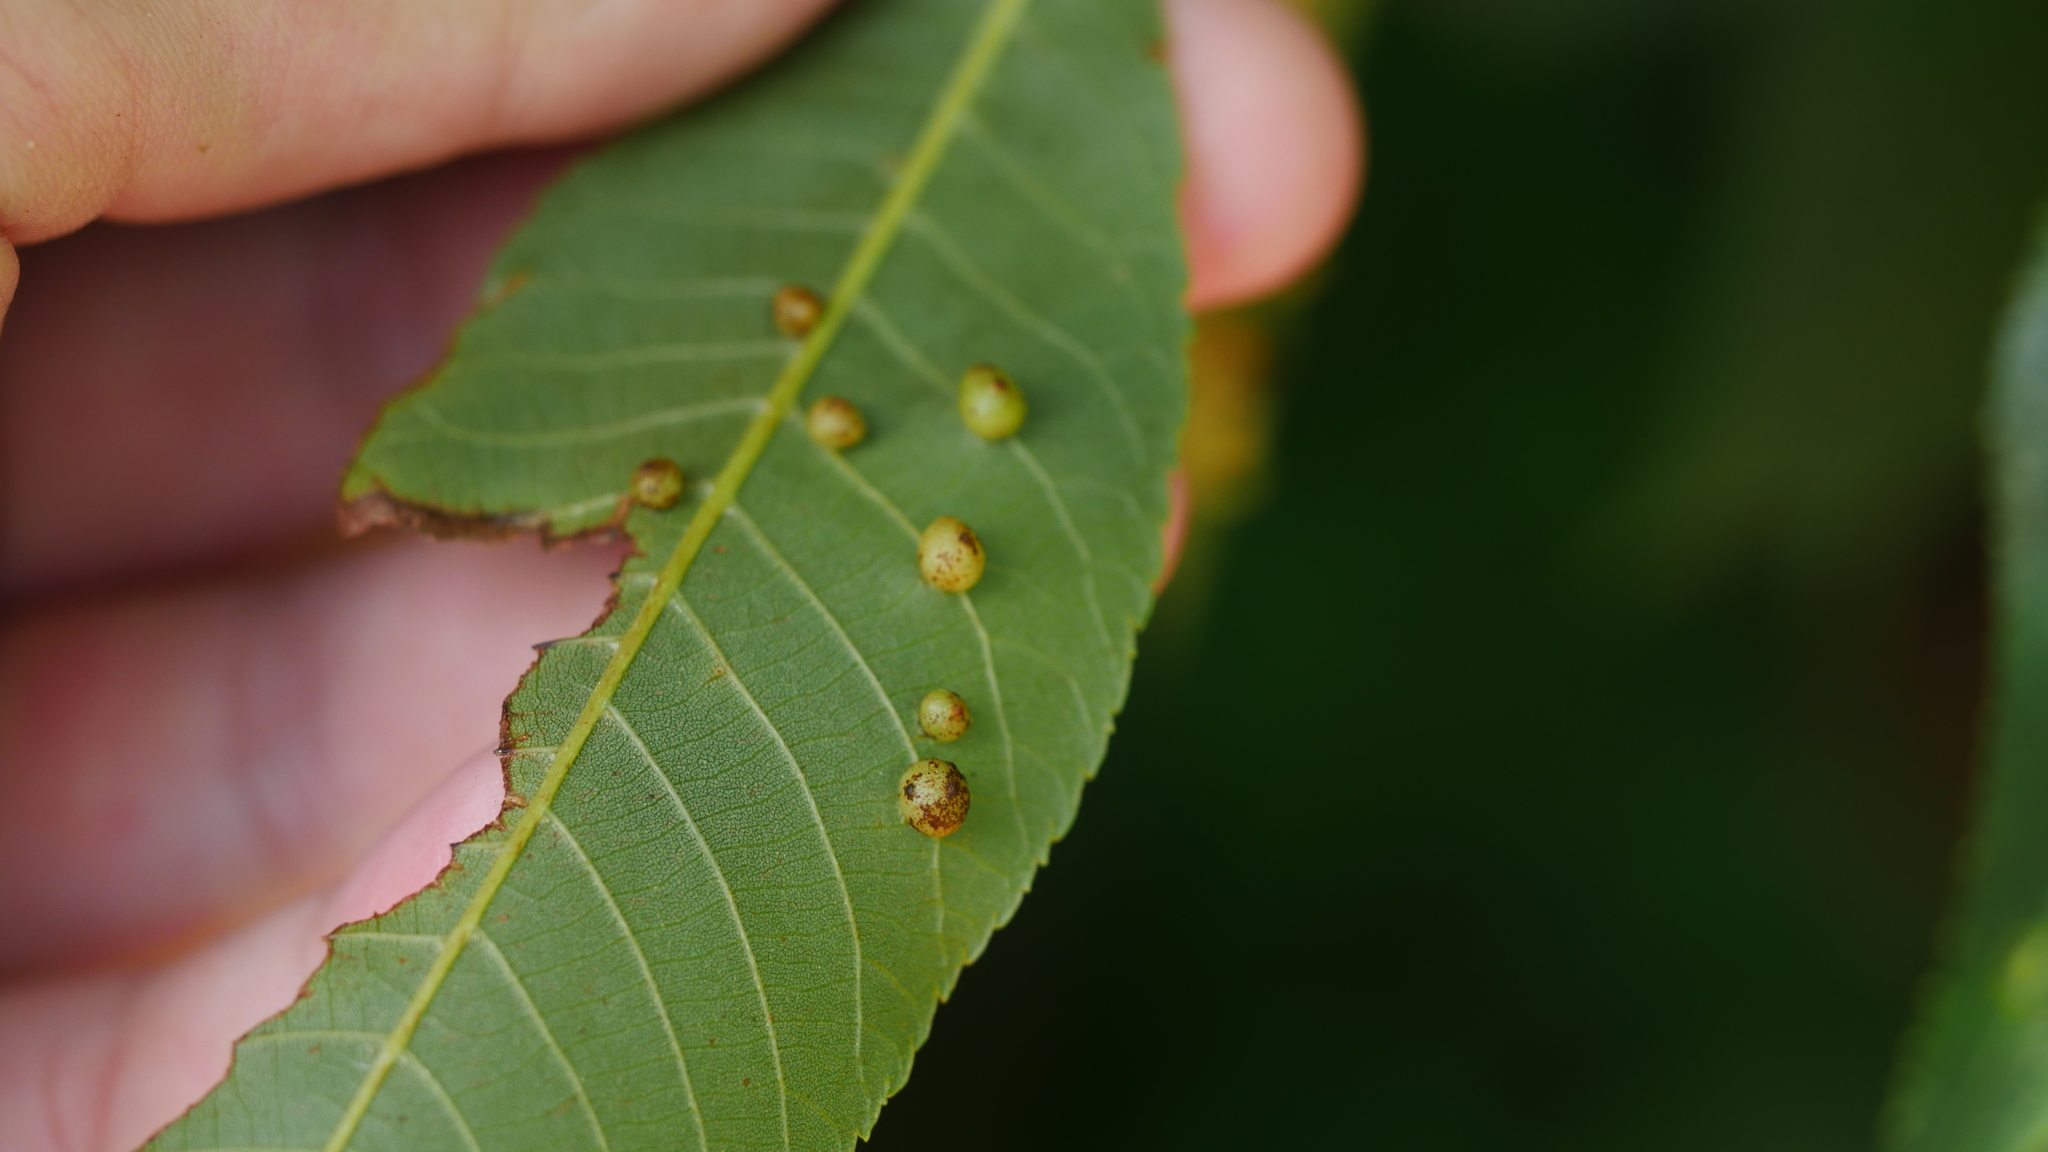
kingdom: Animalia
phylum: Arthropoda
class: Insecta
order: Diptera
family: Cecidomyiidae
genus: Caryomyia
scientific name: Caryomyia caryae
